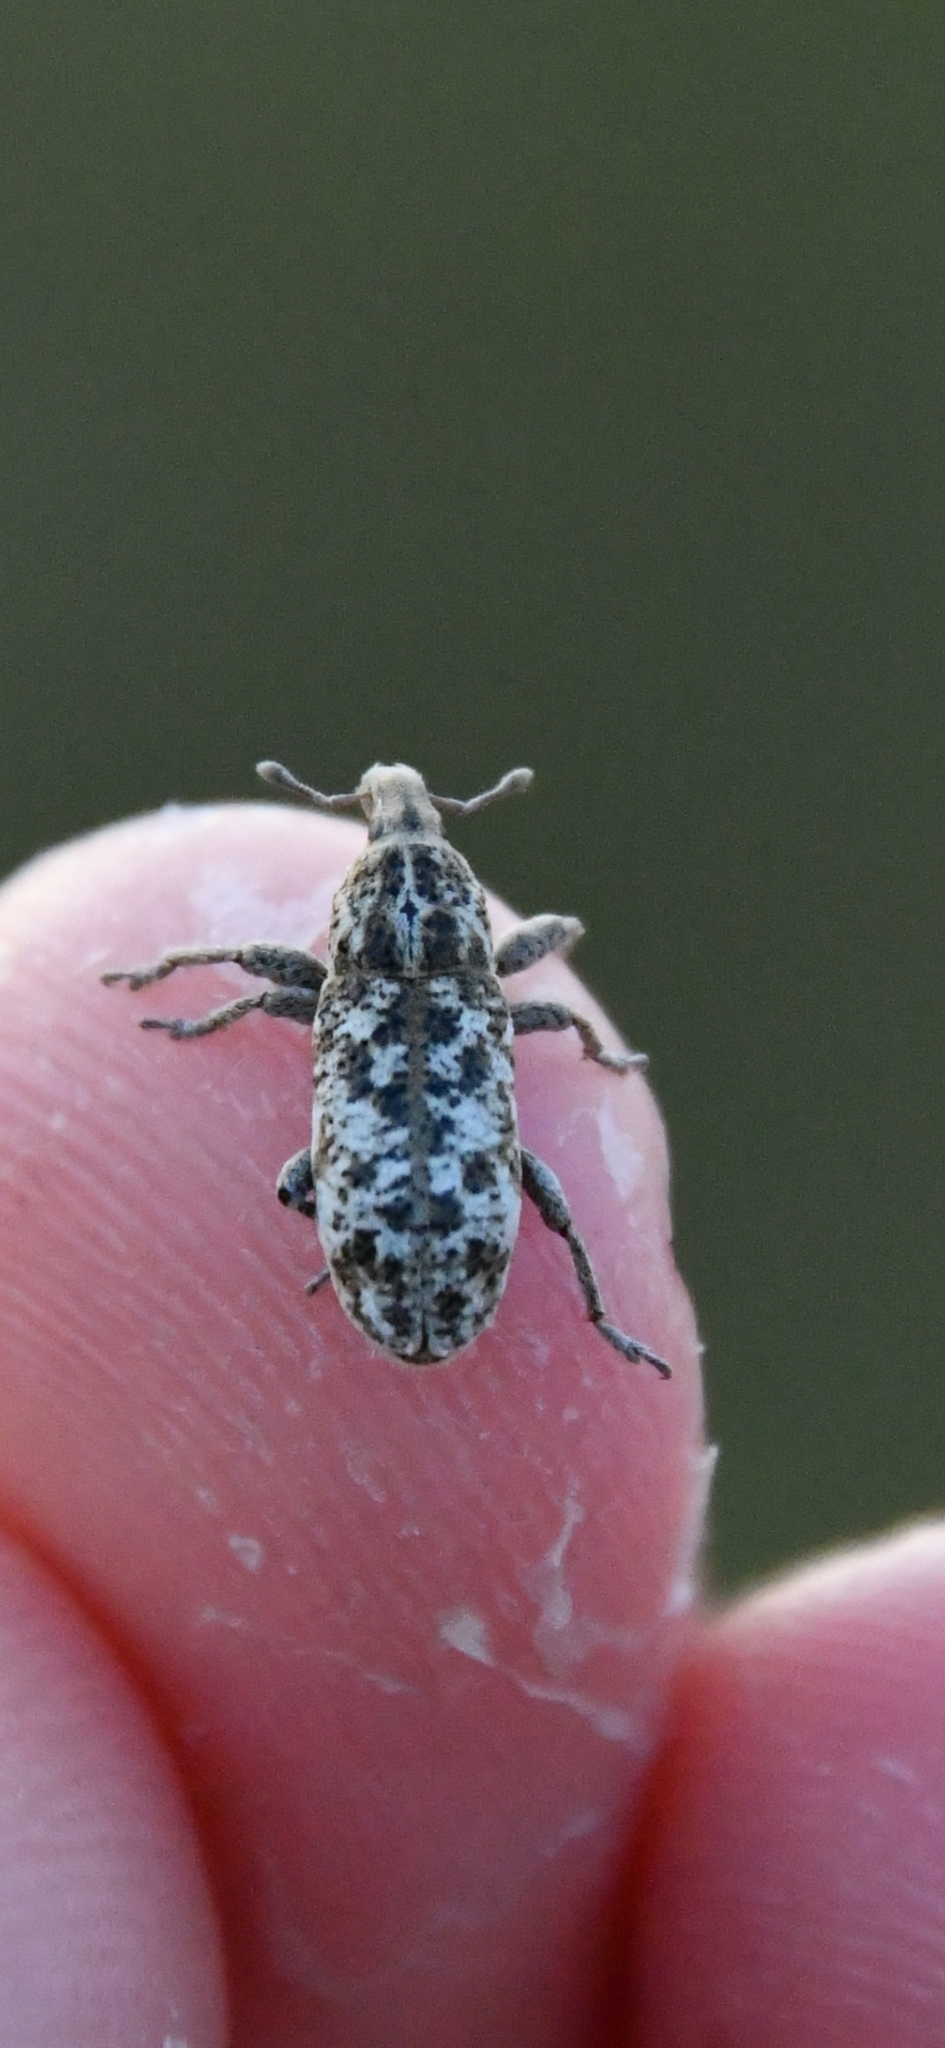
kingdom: Animalia
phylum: Arthropoda
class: Insecta
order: Coleoptera
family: Curculionidae
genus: Cyphocleonus
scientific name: Cyphocleonus dealbatus
